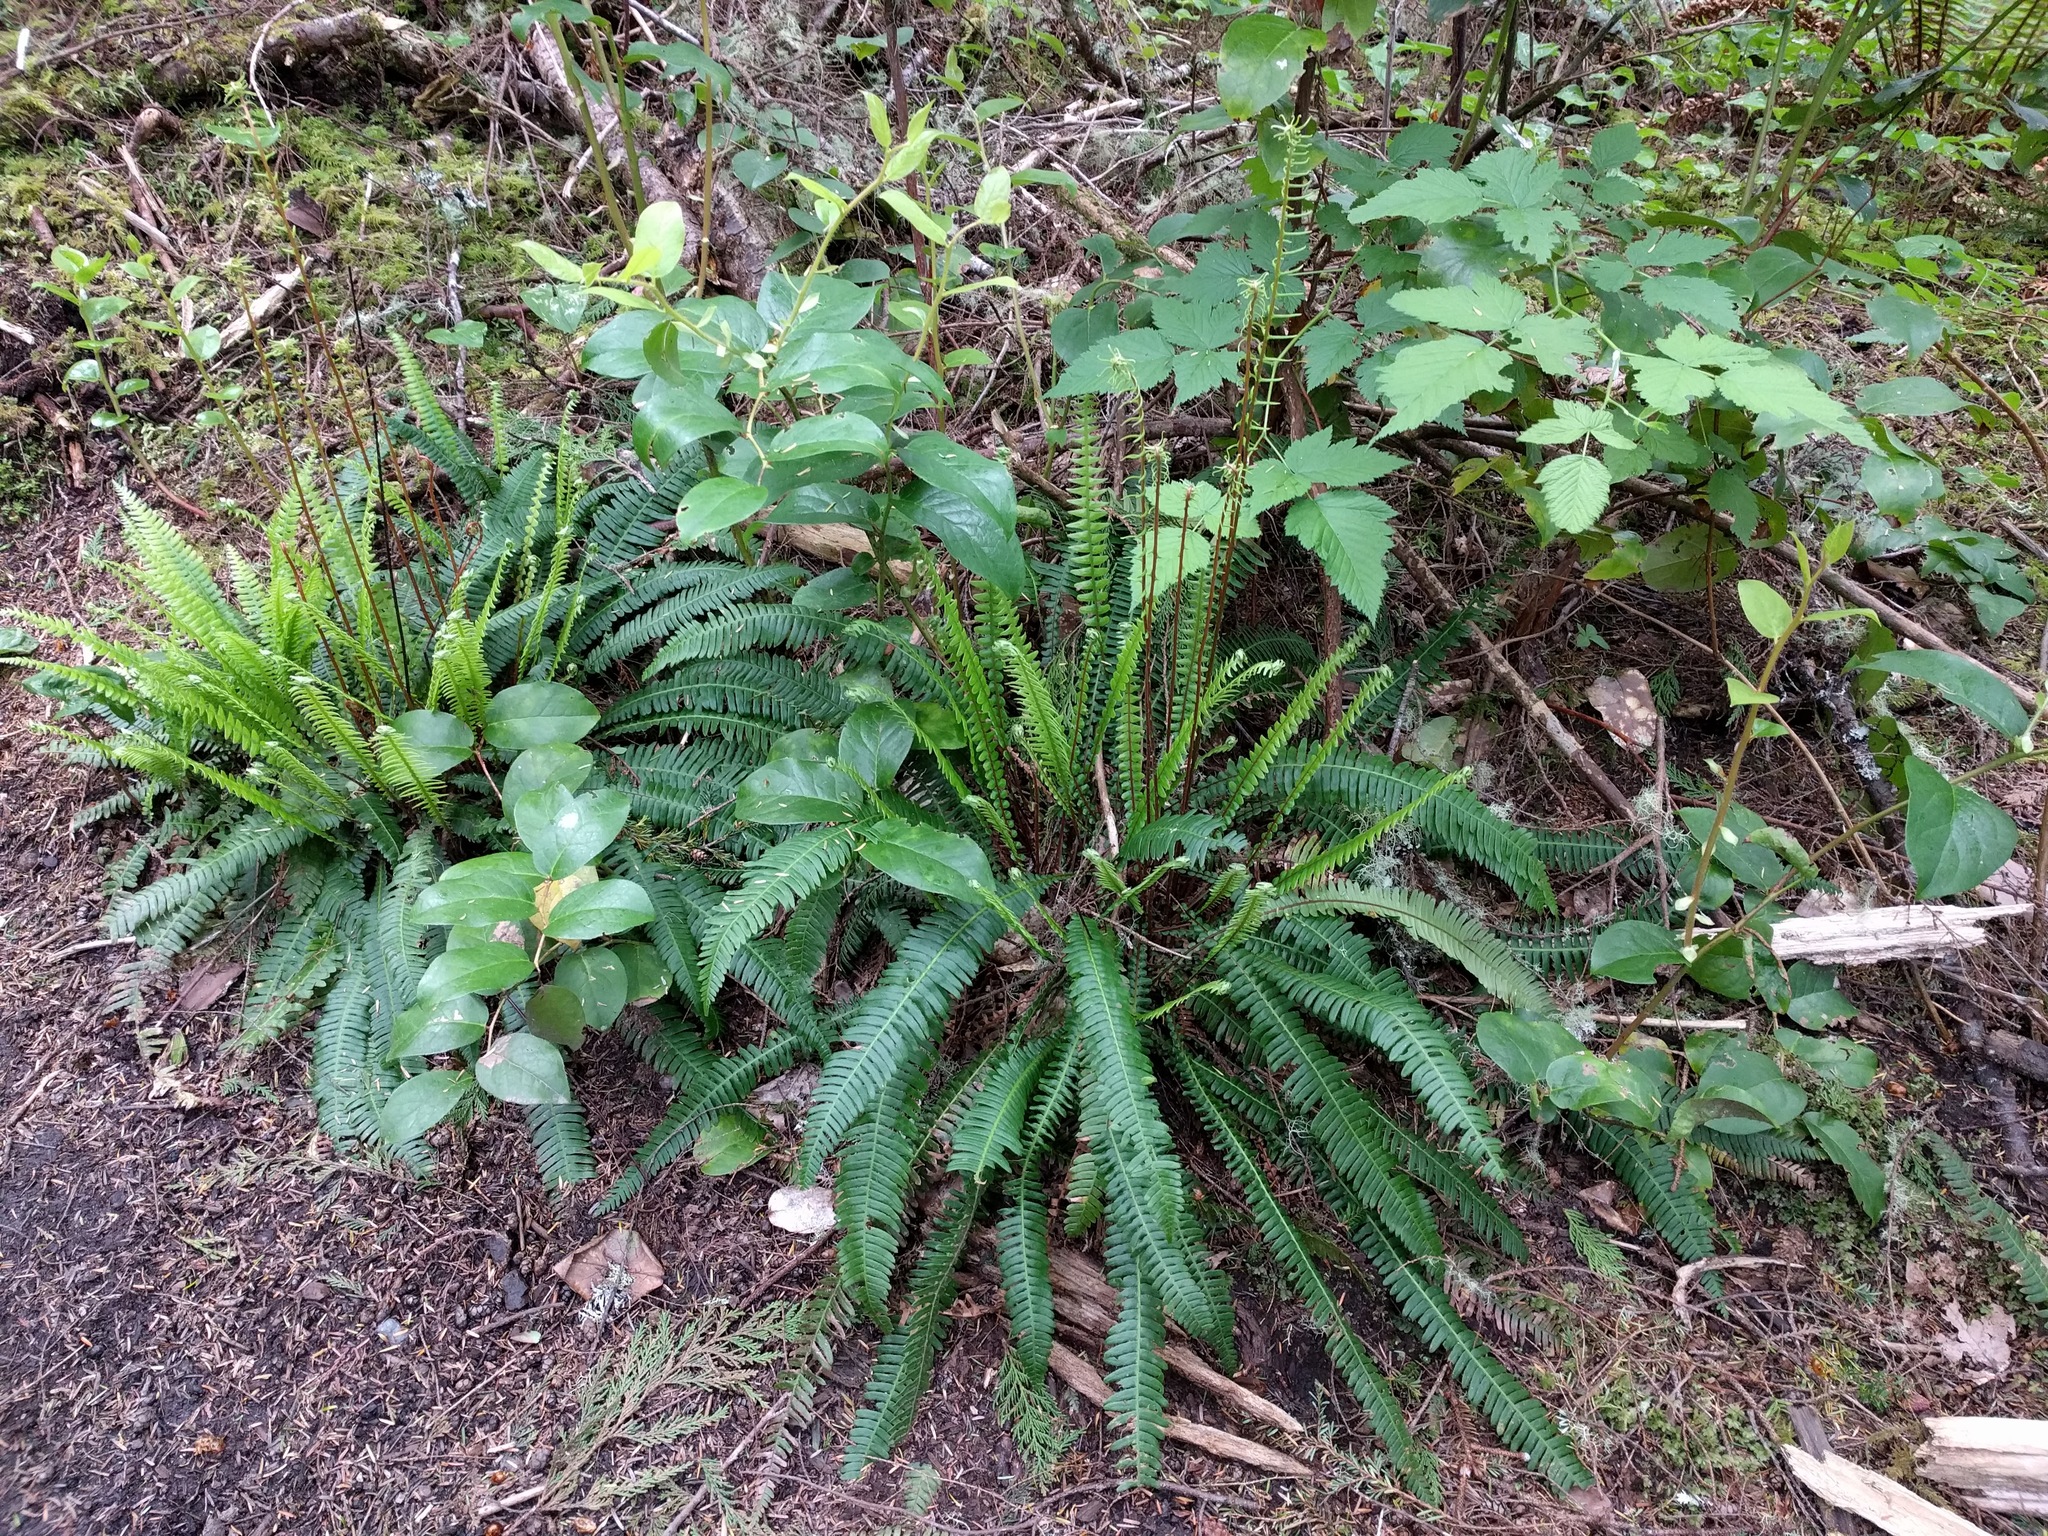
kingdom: Plantae
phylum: Tracheophyta
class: Liliopsida
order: Asparagales
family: Asparagaceae
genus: Maianthemum
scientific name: Maianthemum dilatatum
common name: False lily-of-the-valley
